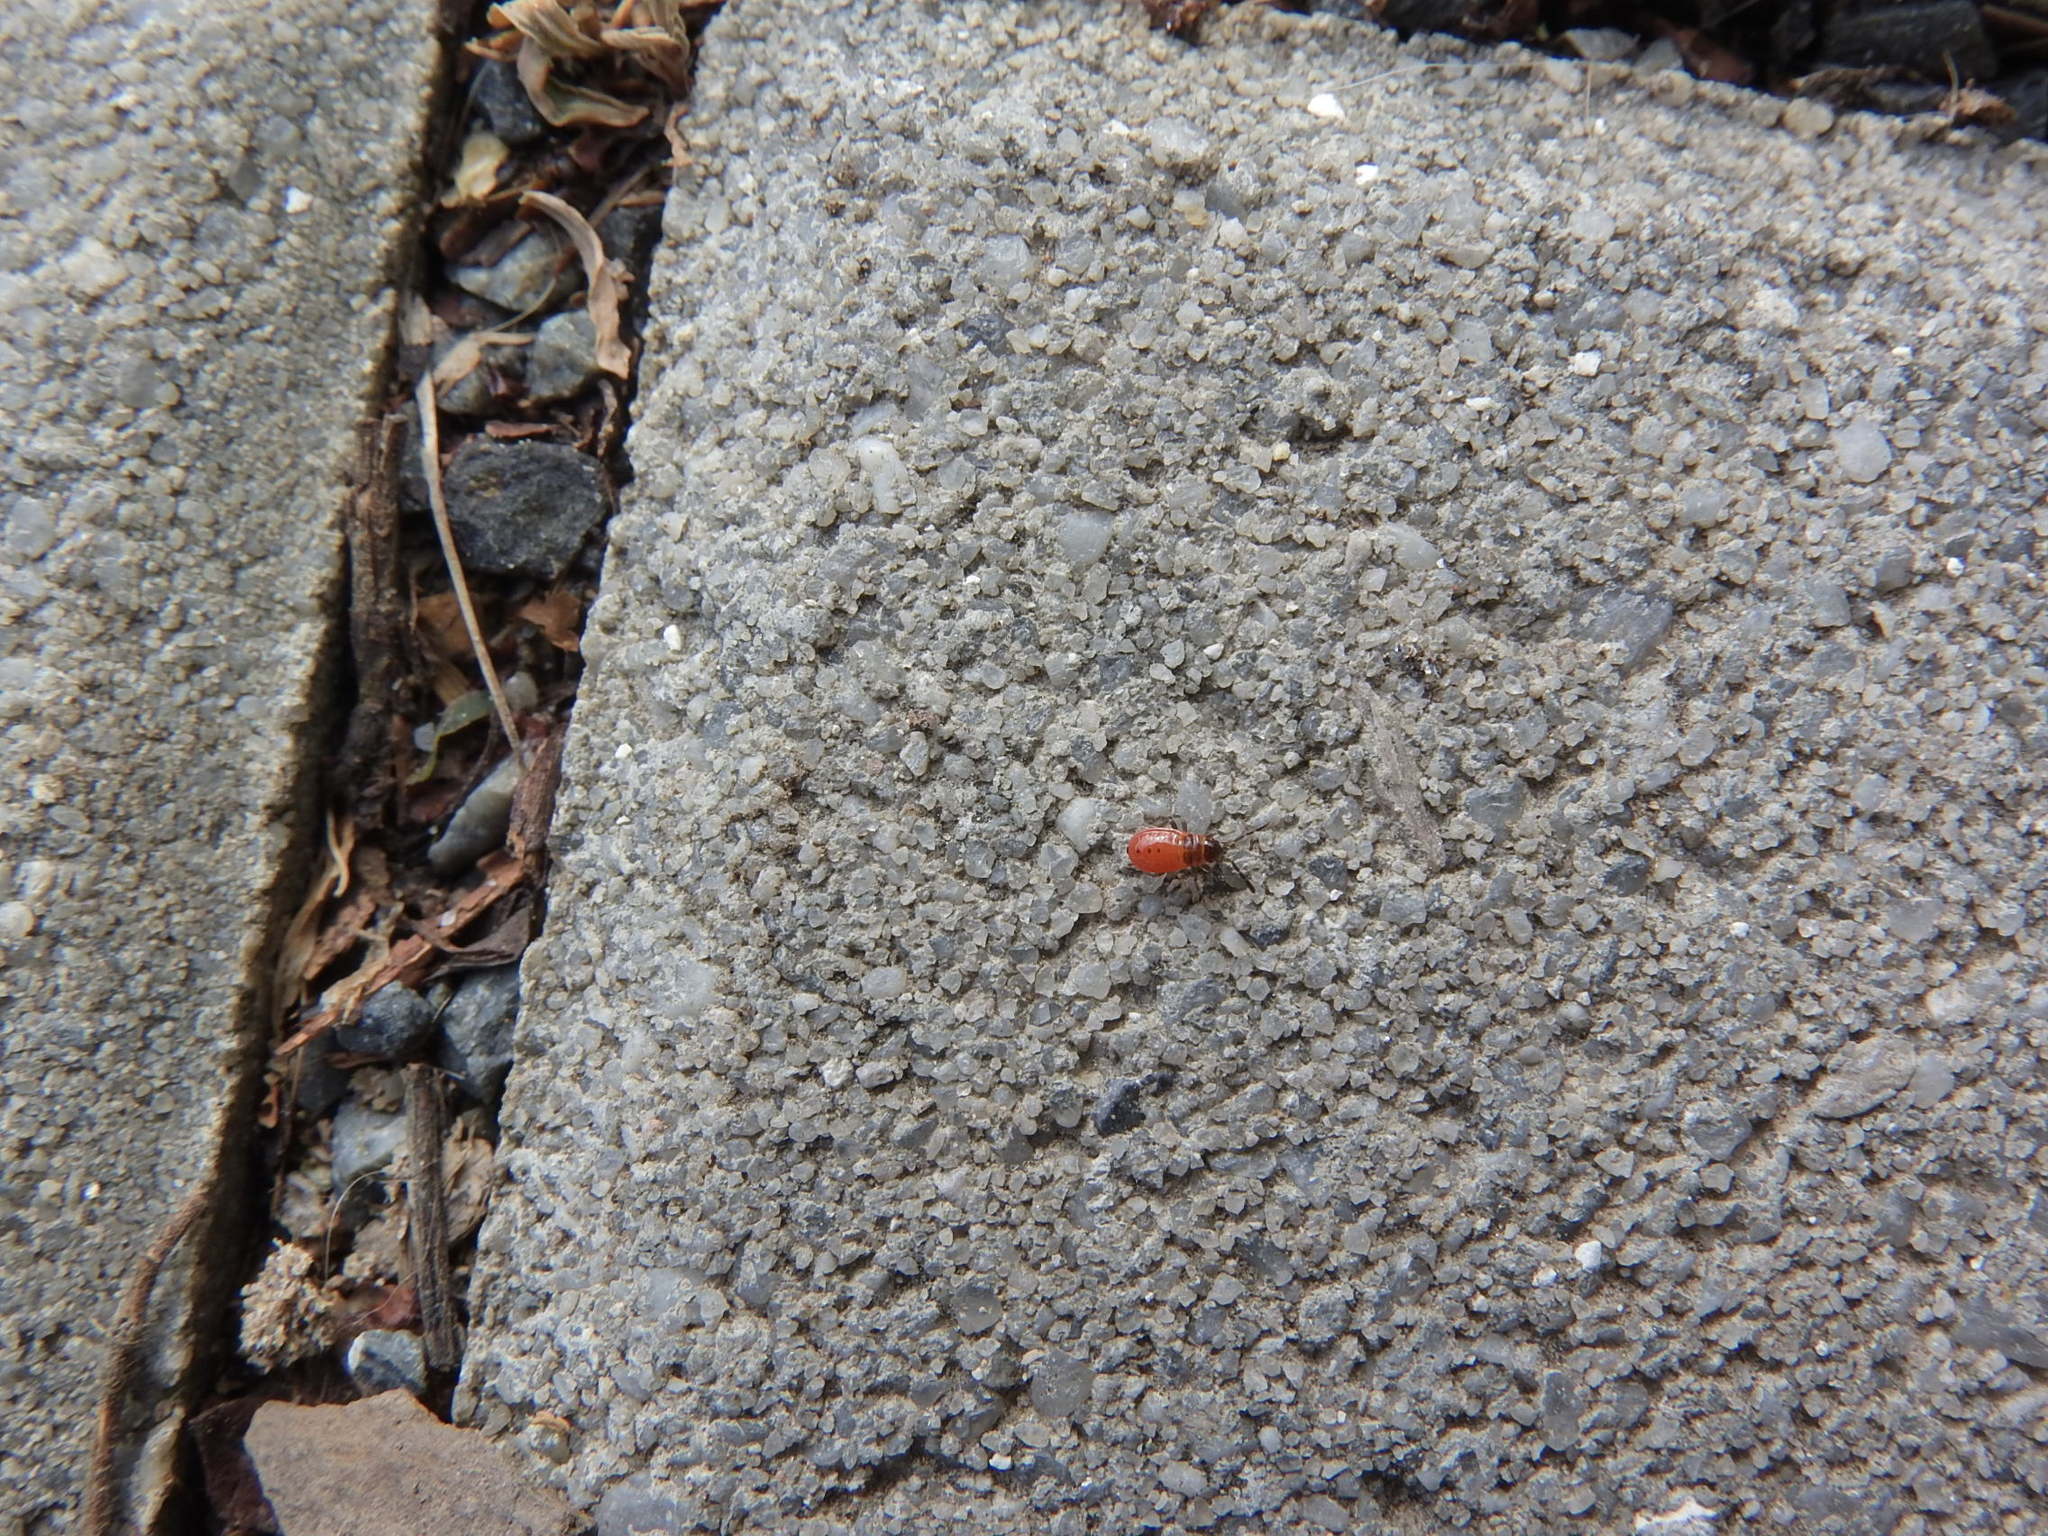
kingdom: Animalia
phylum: Arthropoda
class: Insecta
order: Hemiptera
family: Pyrrhocoridae
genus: Pyrrhocoris
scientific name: Pyrrhocoris apterus
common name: Firebug
